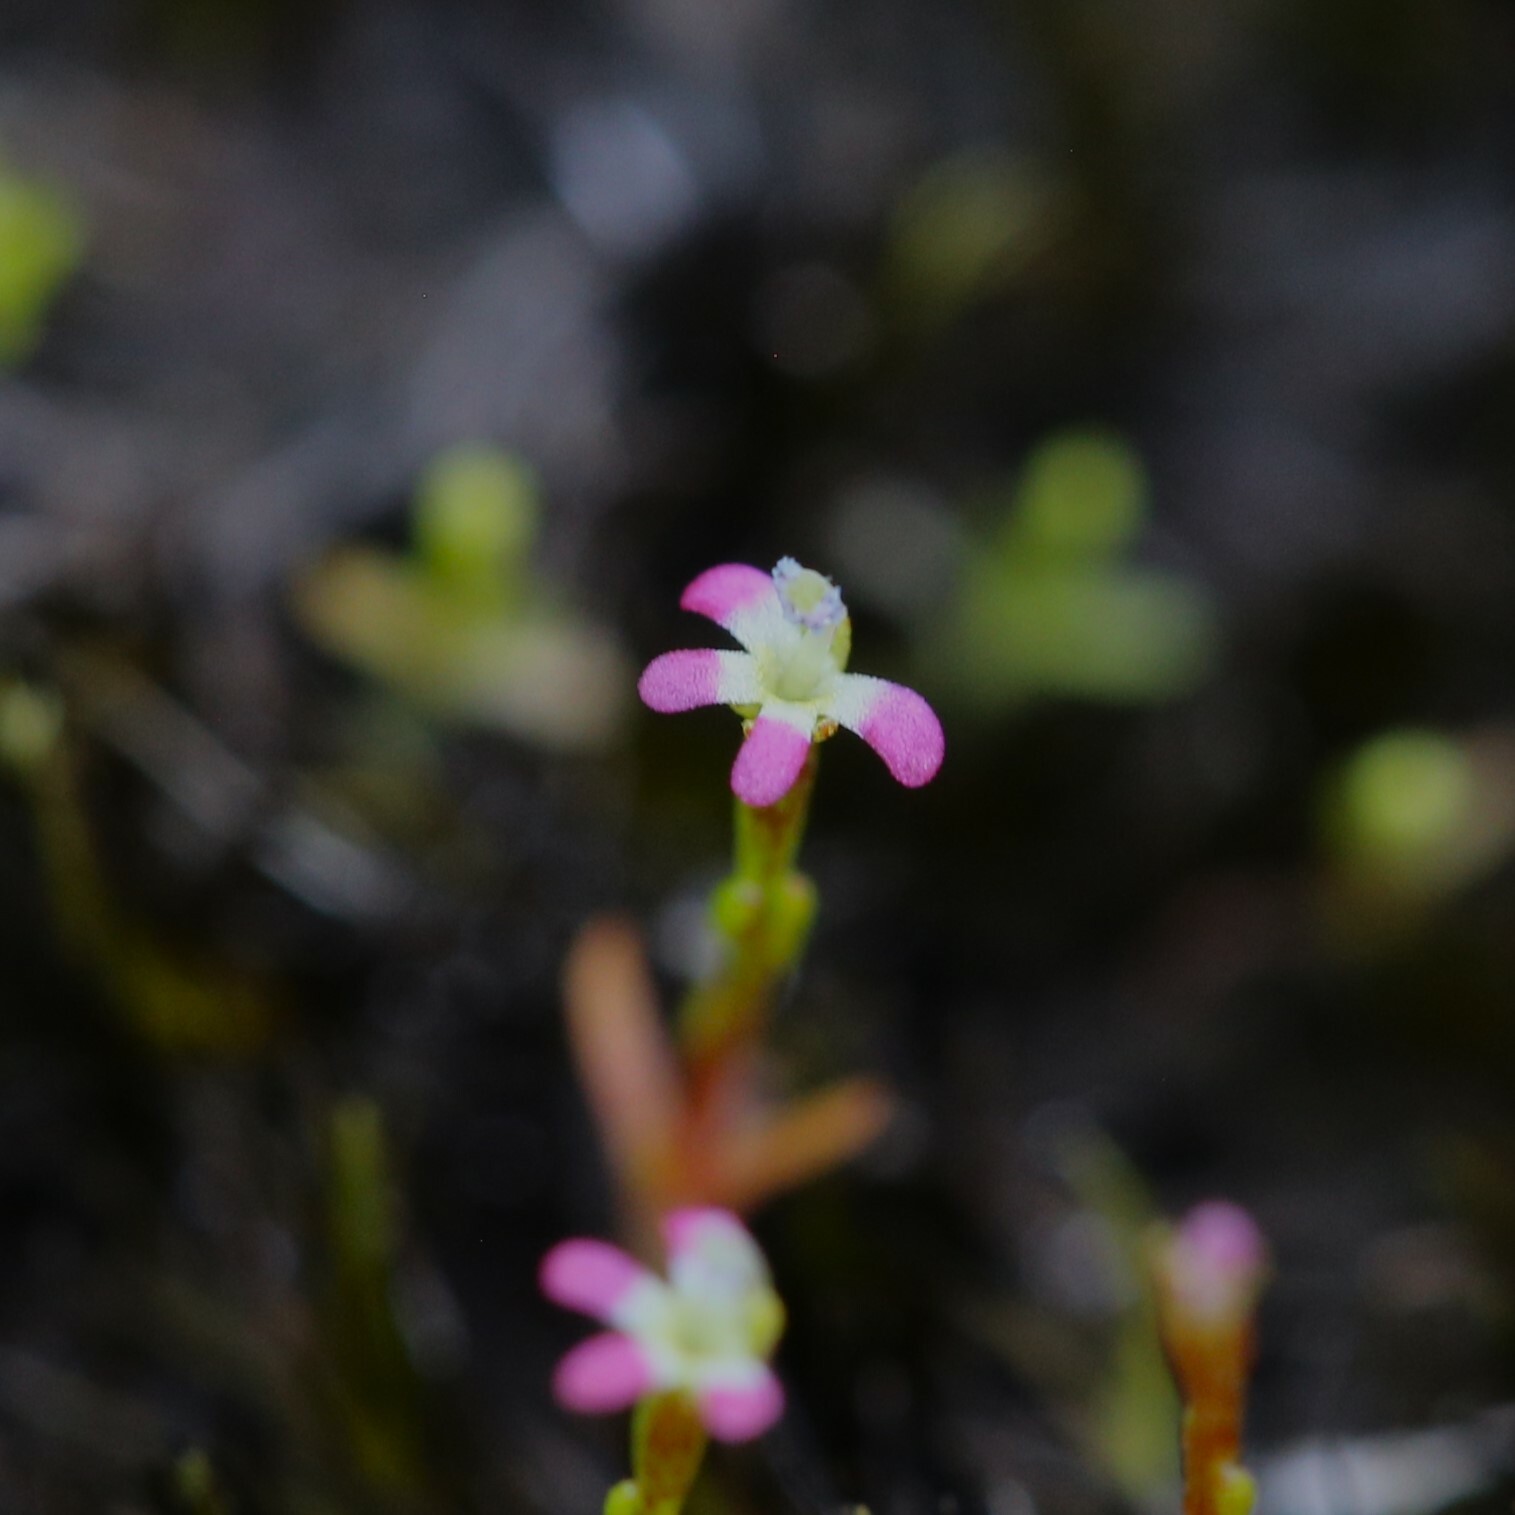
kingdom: Plantae
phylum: Tracheophyta
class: Magnoliopsida
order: Asterales
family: Stylidiaceae
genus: Stylidium
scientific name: Stylidium despectum
